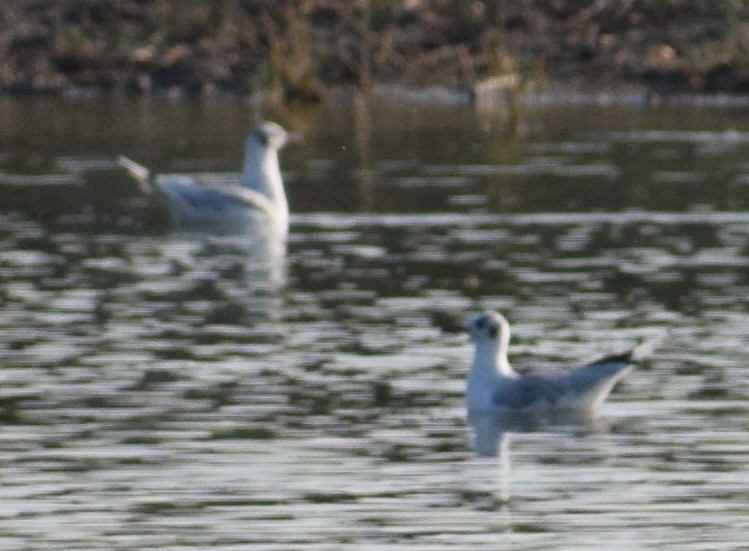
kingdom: Animalia
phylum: Chordata
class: Aves
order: Charadriiformes
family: Laridae
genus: Chroicocephalus
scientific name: Chroicocephalus ridibundus
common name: Black-headed gull
